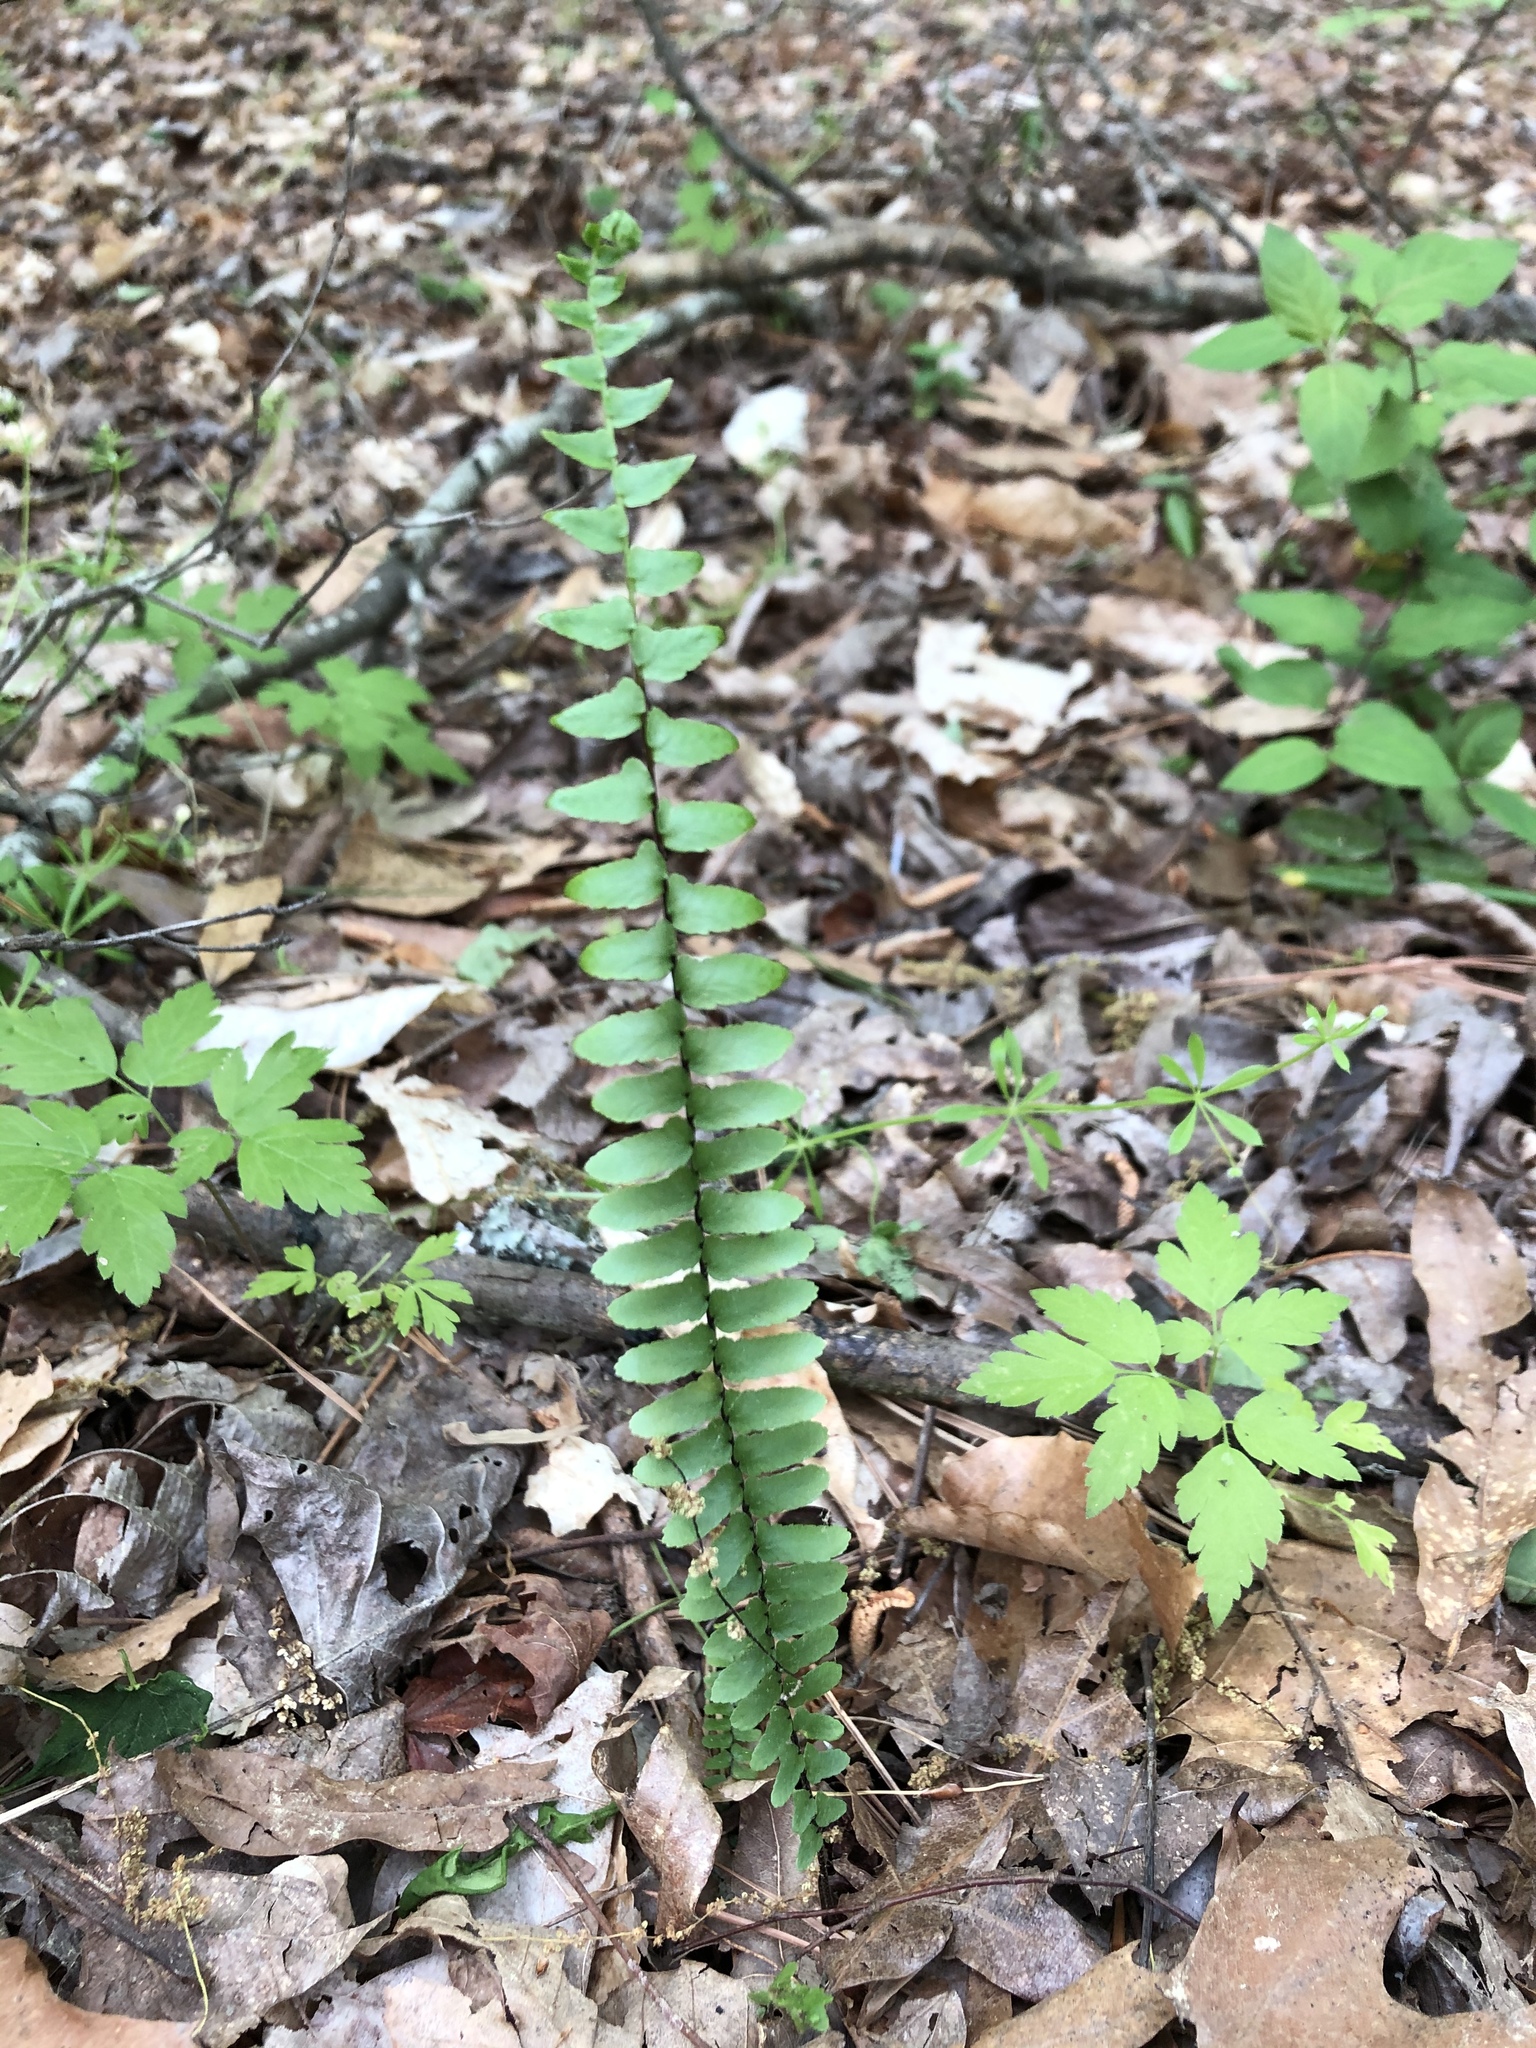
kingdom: Plantae
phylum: Tracheophyta
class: Polypodiopsida
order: Polypodiales
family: Aspleniaceae
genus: Asplenium
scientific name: Asplenium platyneuron
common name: Ebony spleenwort
